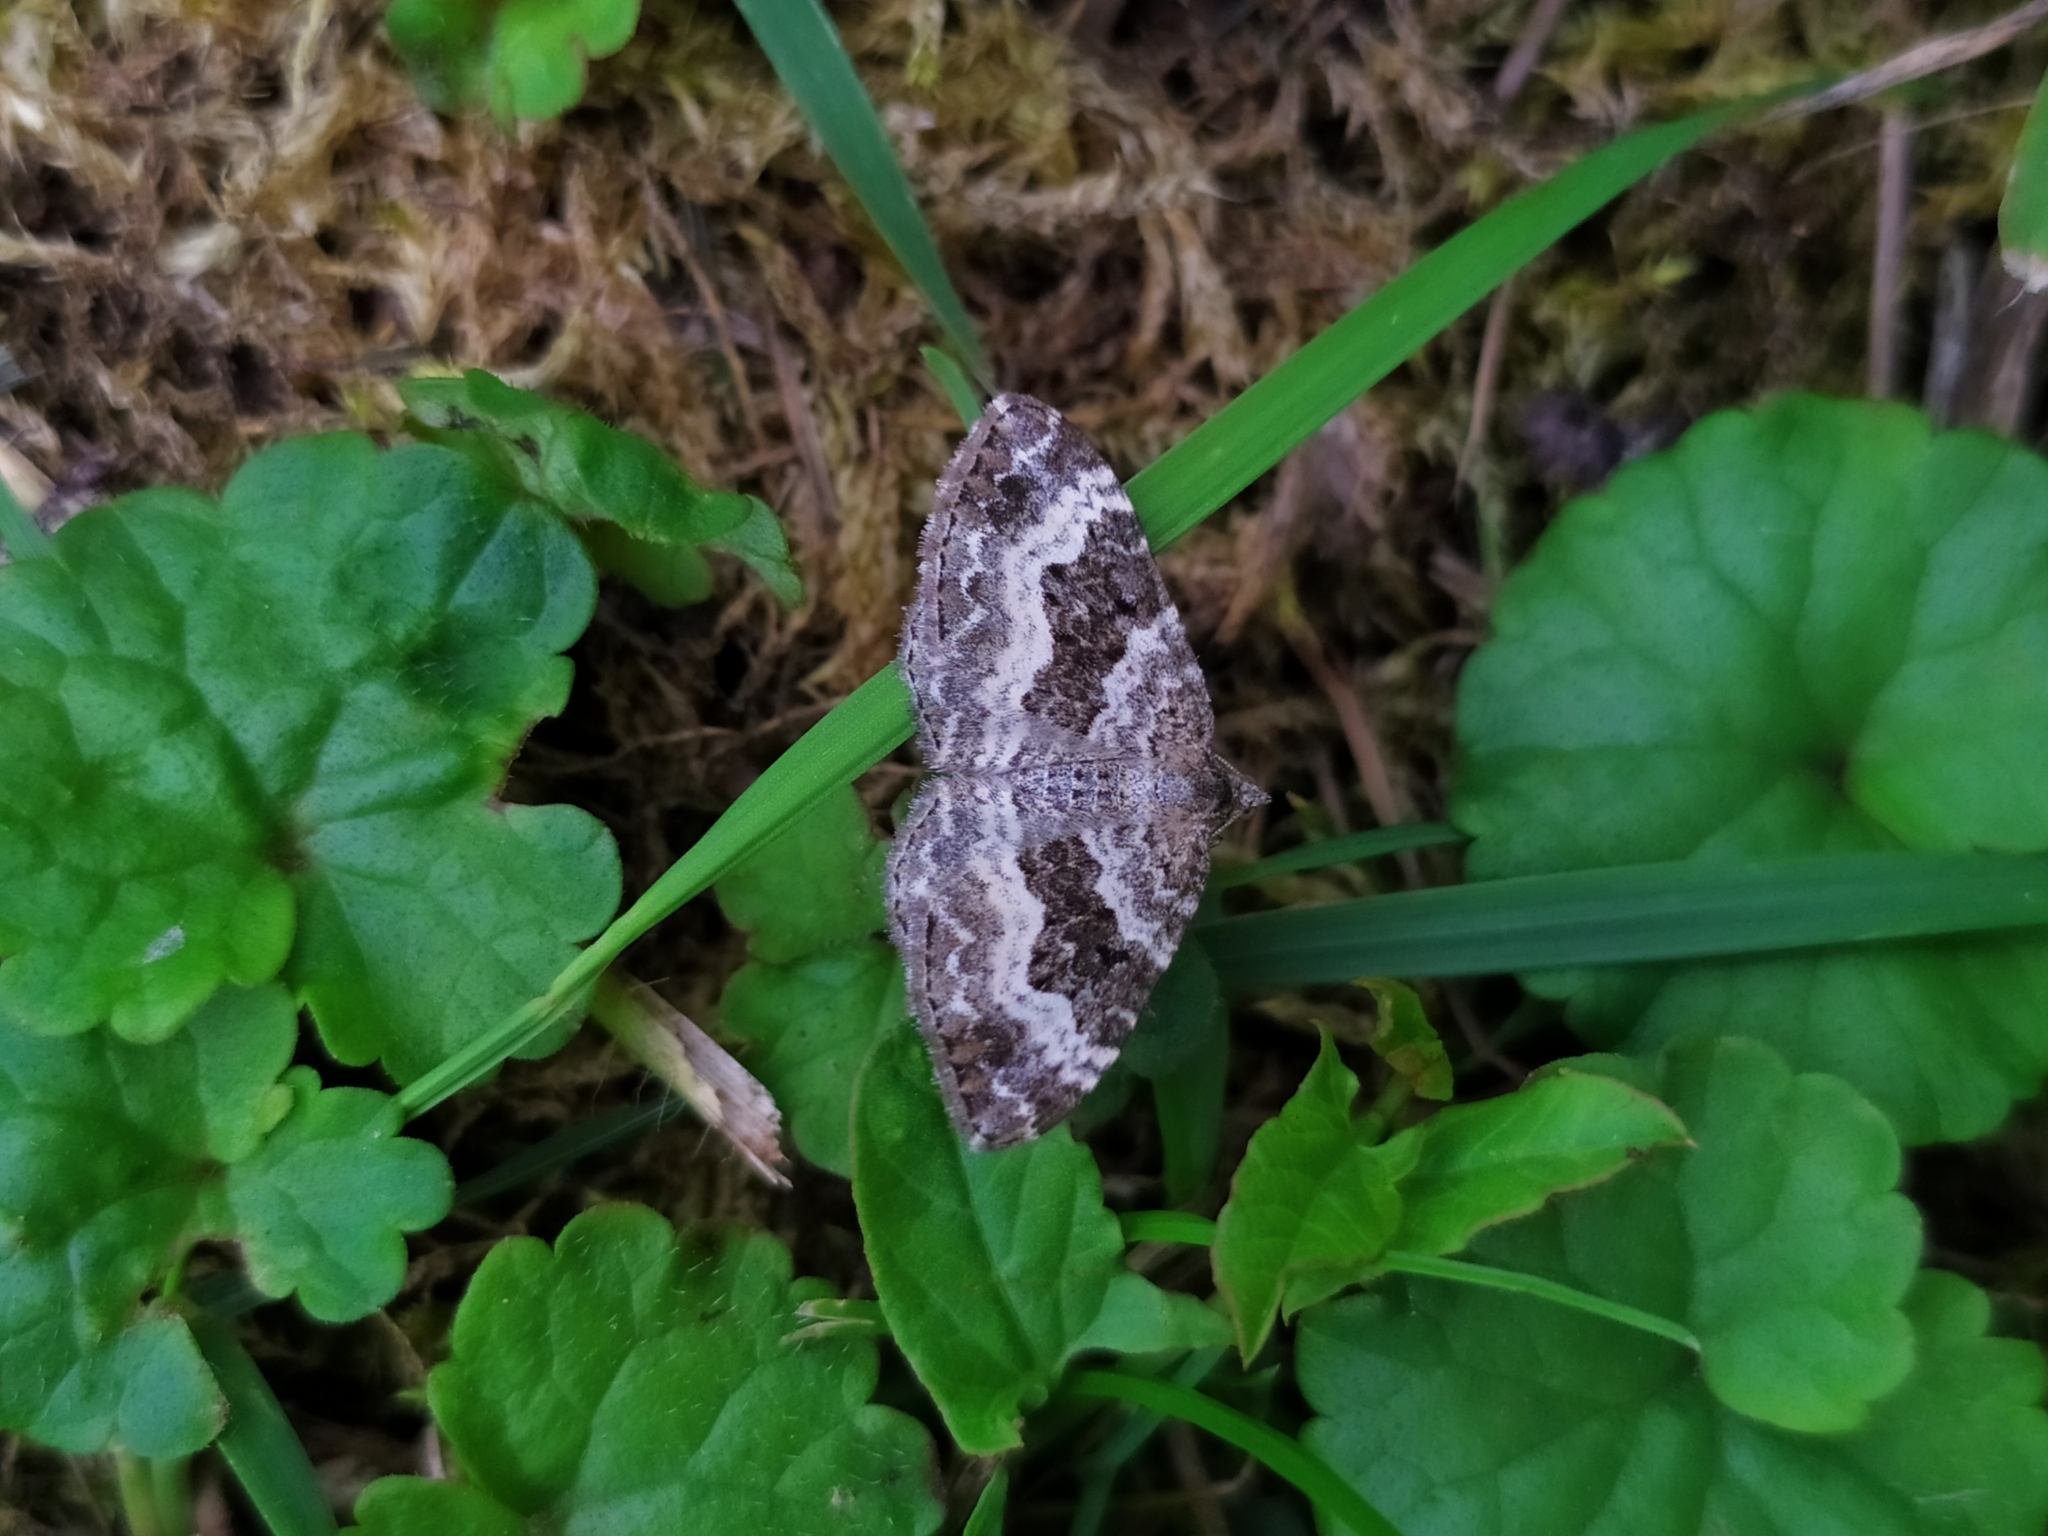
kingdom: Animalia
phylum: Arthropoda
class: Insecta
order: Lepidoptera
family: Geometridae
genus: Epirrhoe
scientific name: Epirrhoe alternata
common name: Common carpet
